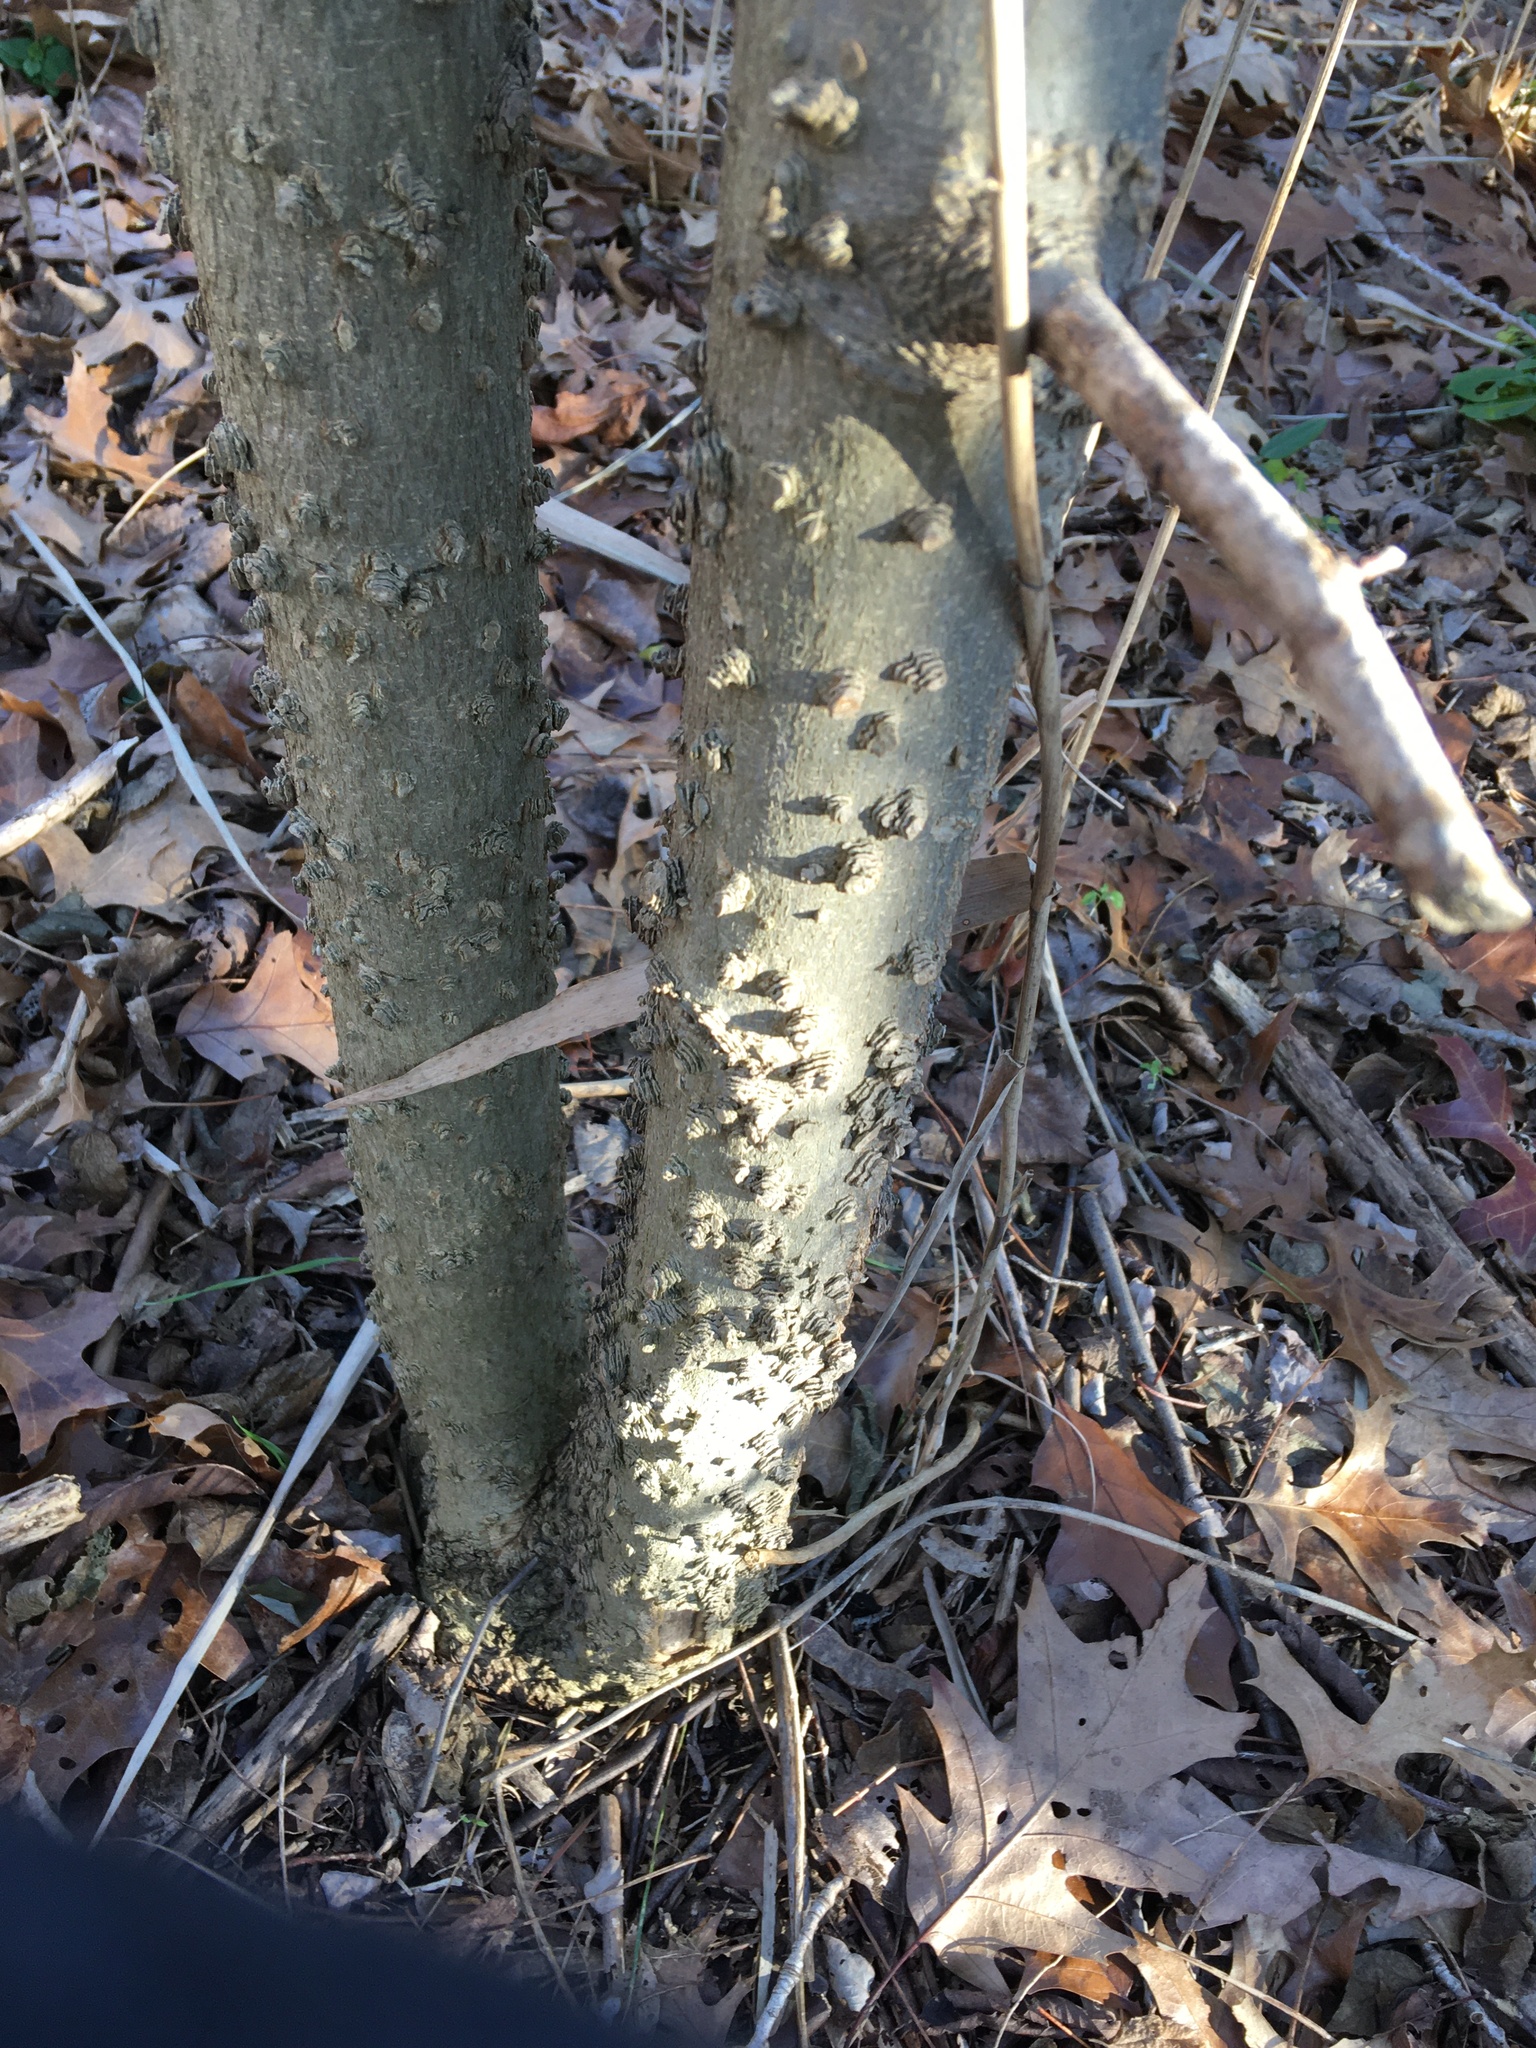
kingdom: Plantae
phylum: Tracheophyta
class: Magnoliopsida
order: Rosales
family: Cannabaceae
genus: Celtis
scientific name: Celtis occidentalis
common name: Common hackberry
